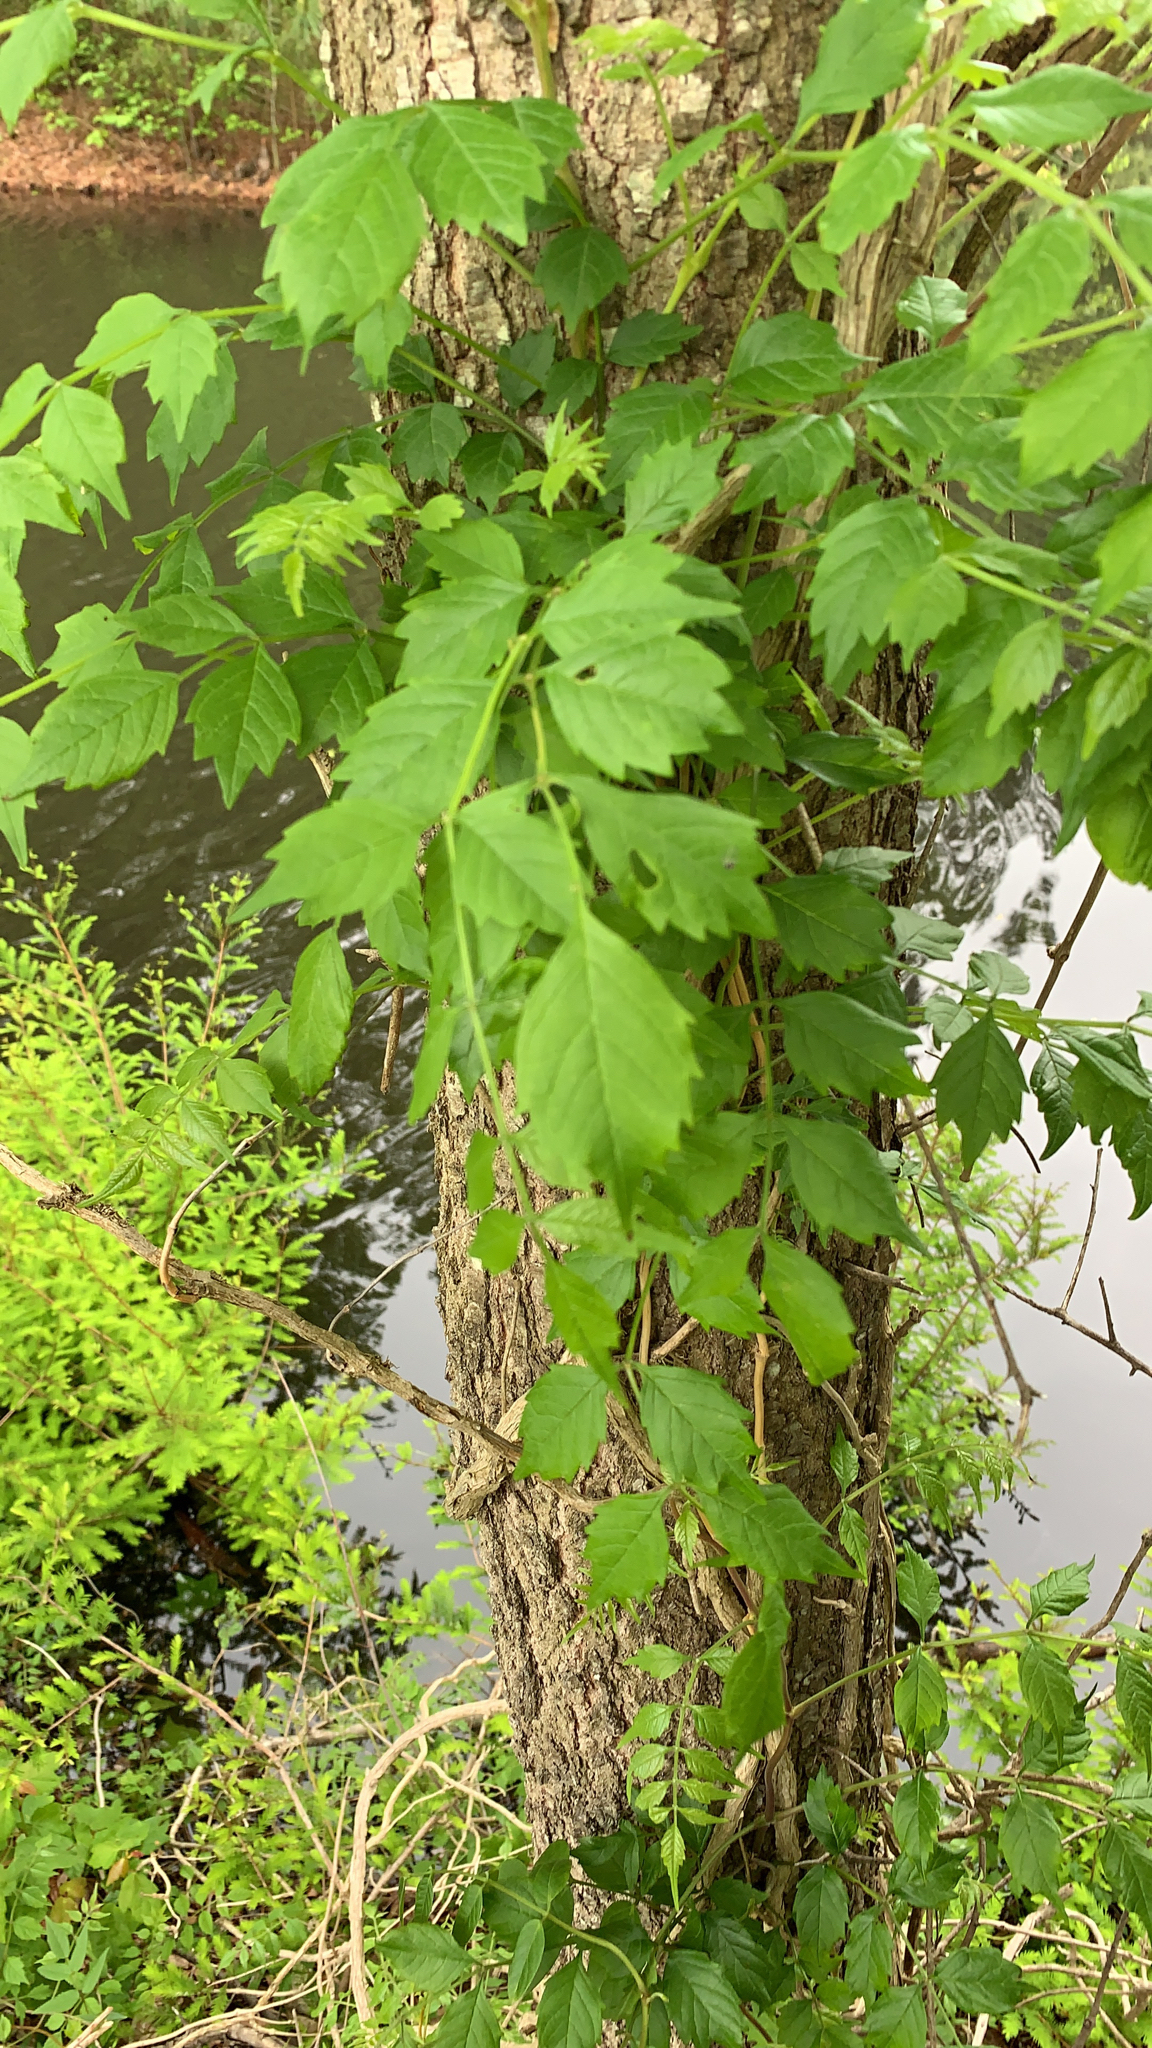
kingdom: Plantae
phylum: Tracheophyta
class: Magnoliopsida
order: Lamiales
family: Bignoniaceae
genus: Campsis
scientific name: Campsis radicans
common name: Trumpet-creeper
